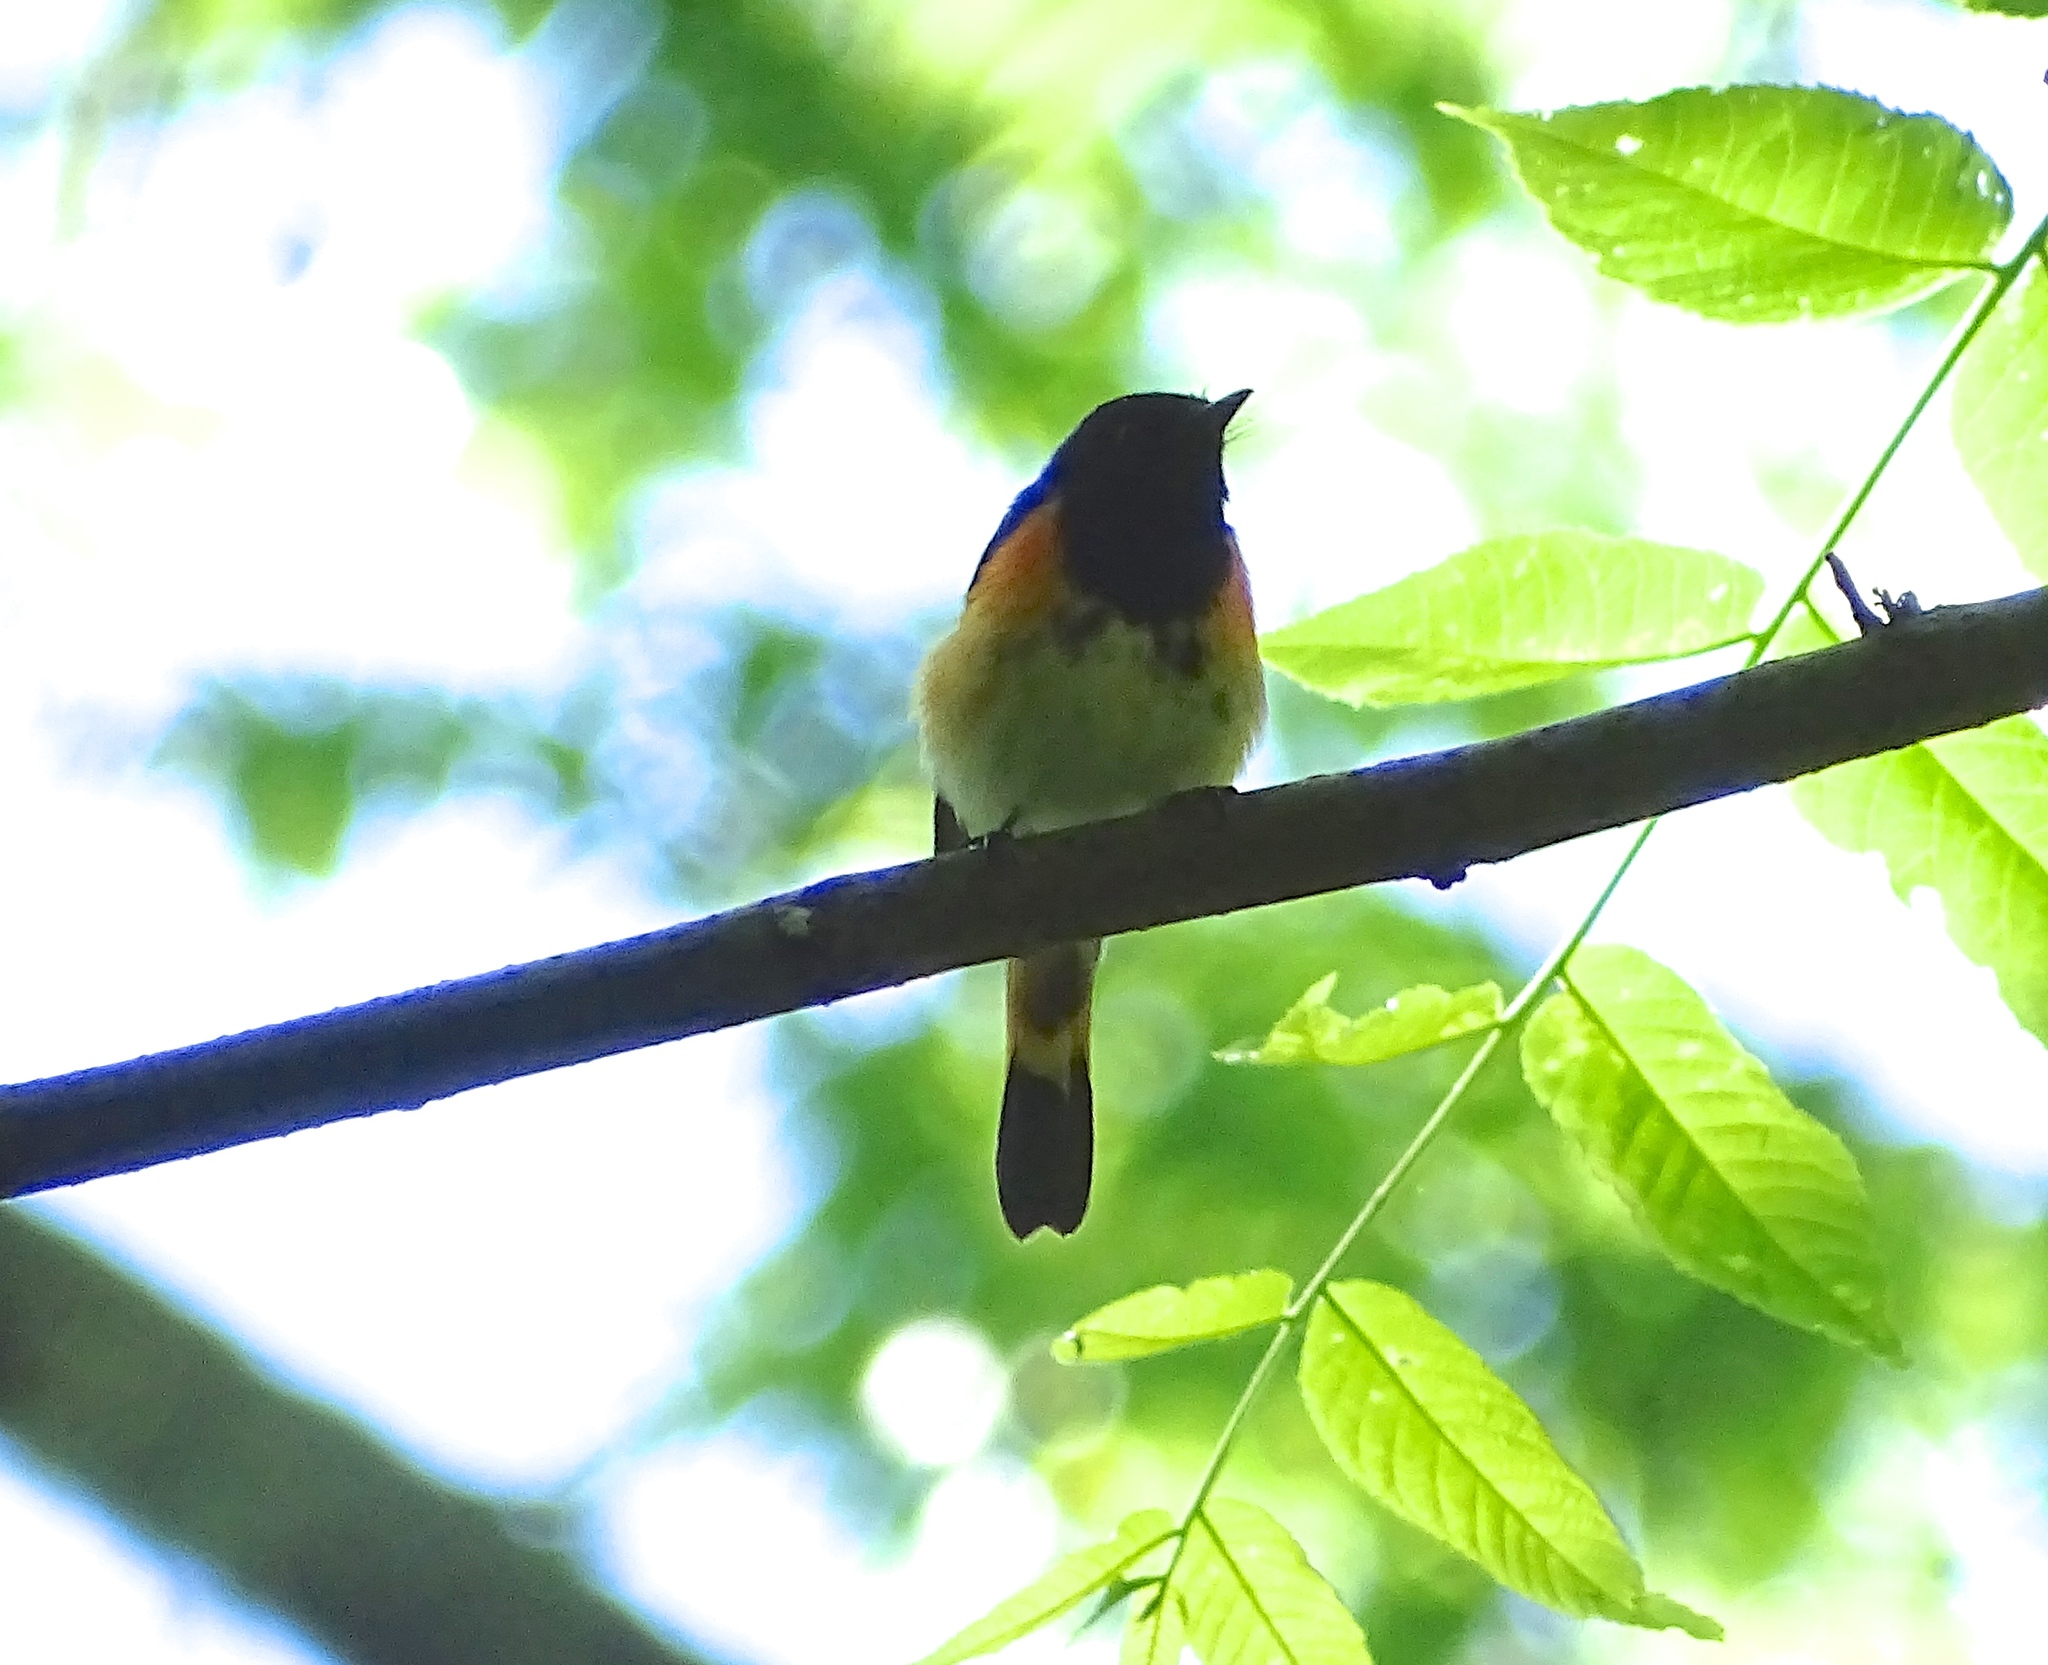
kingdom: Animalia
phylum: Chordata
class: Aves
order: Passeriformes
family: Parulidae
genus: Setophaga
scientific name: Setophaga ruticilla
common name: American redstart
